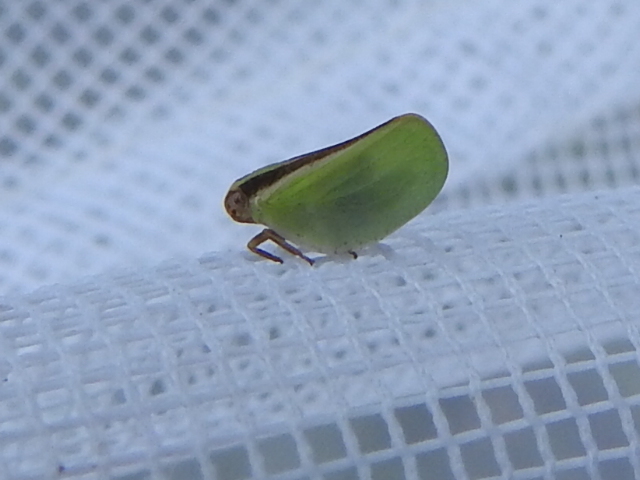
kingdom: Animalia
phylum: Arthropoda
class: Insecta
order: Hemiptera
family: Acanaloniidae
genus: Acanalonia
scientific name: Acanalonia fasciata
